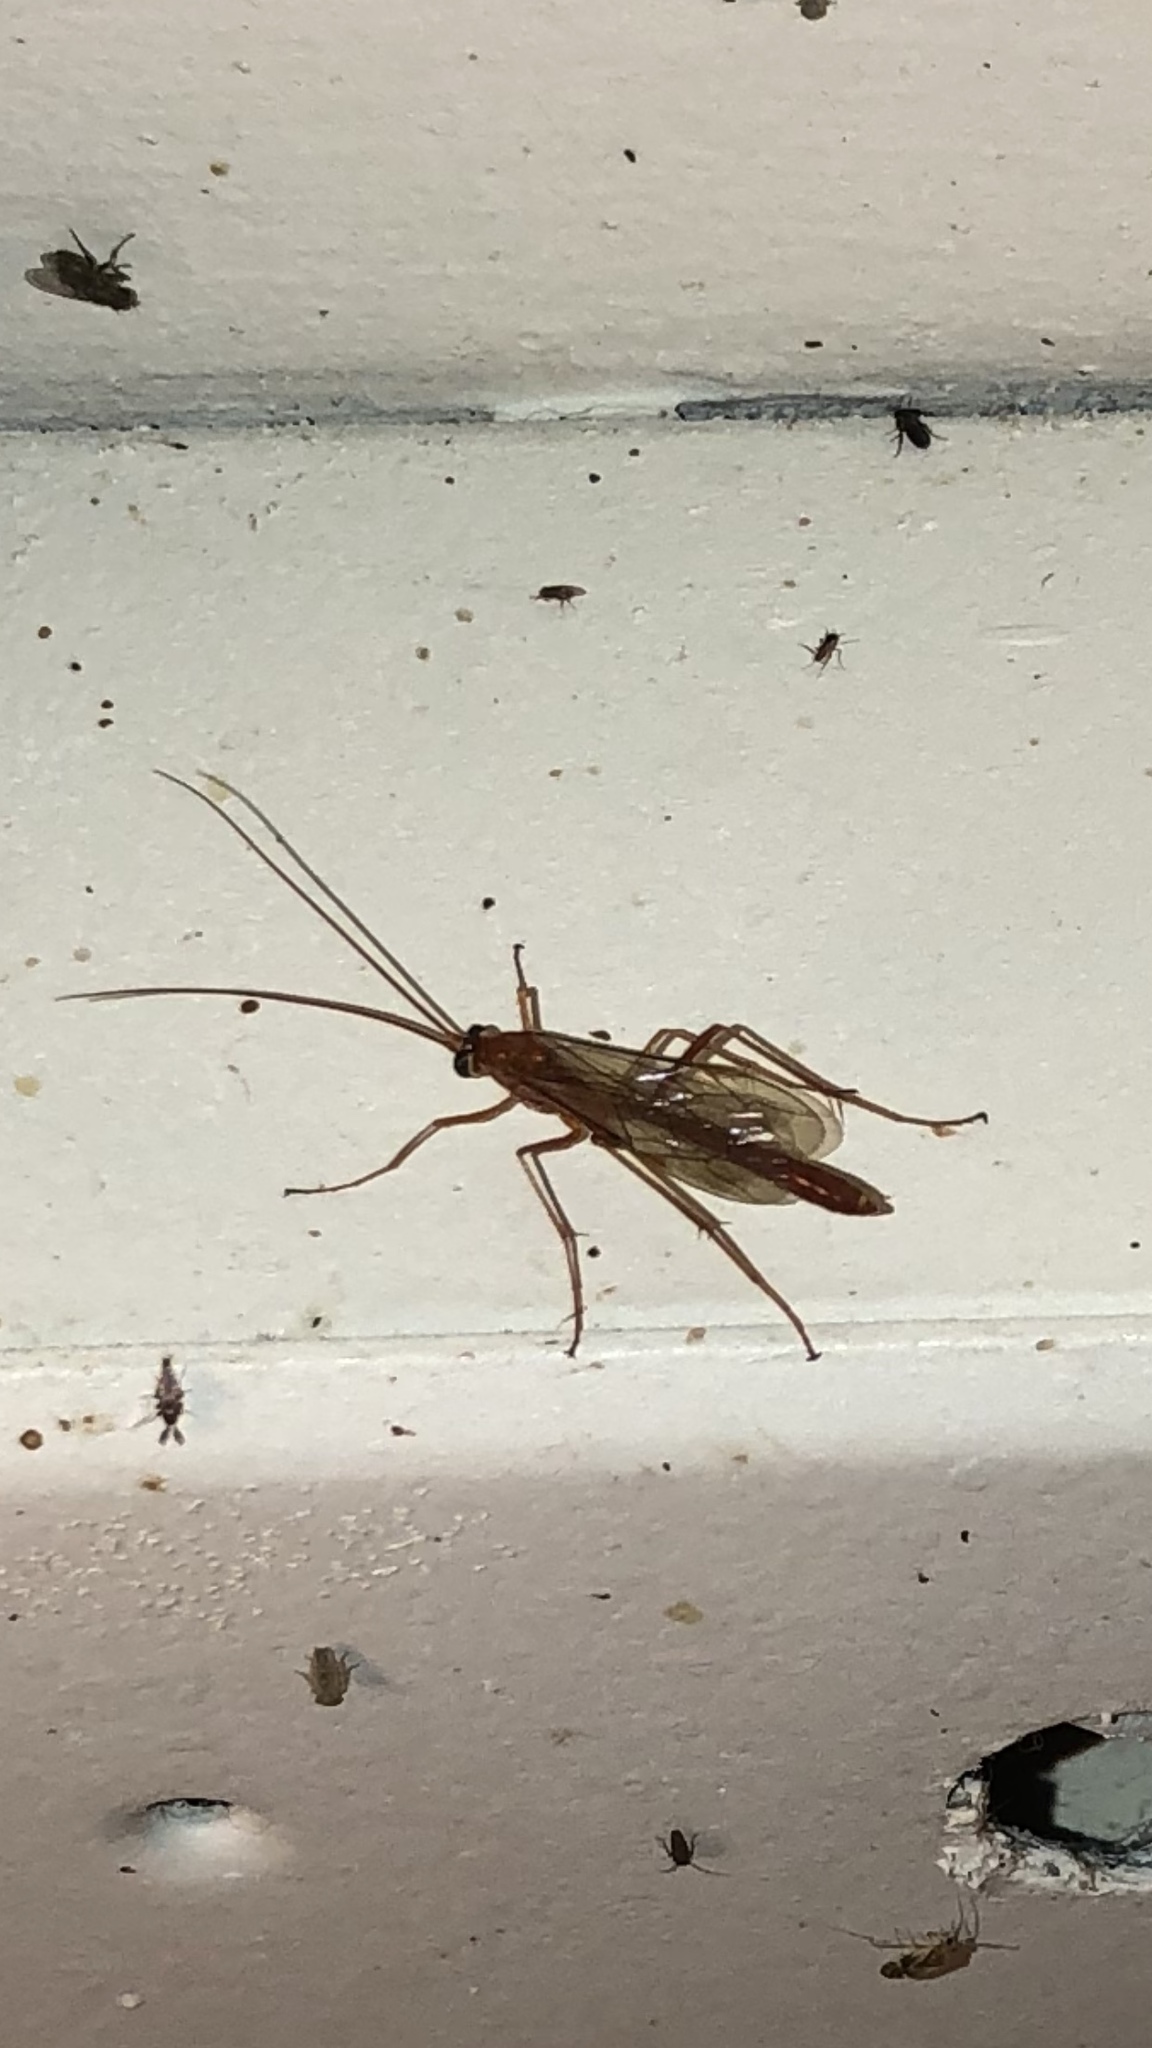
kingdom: Animalia
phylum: Arthropoda
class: Insecta
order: Hymenoptera
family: Ichneumonidae
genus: Netelia
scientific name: Netelia
